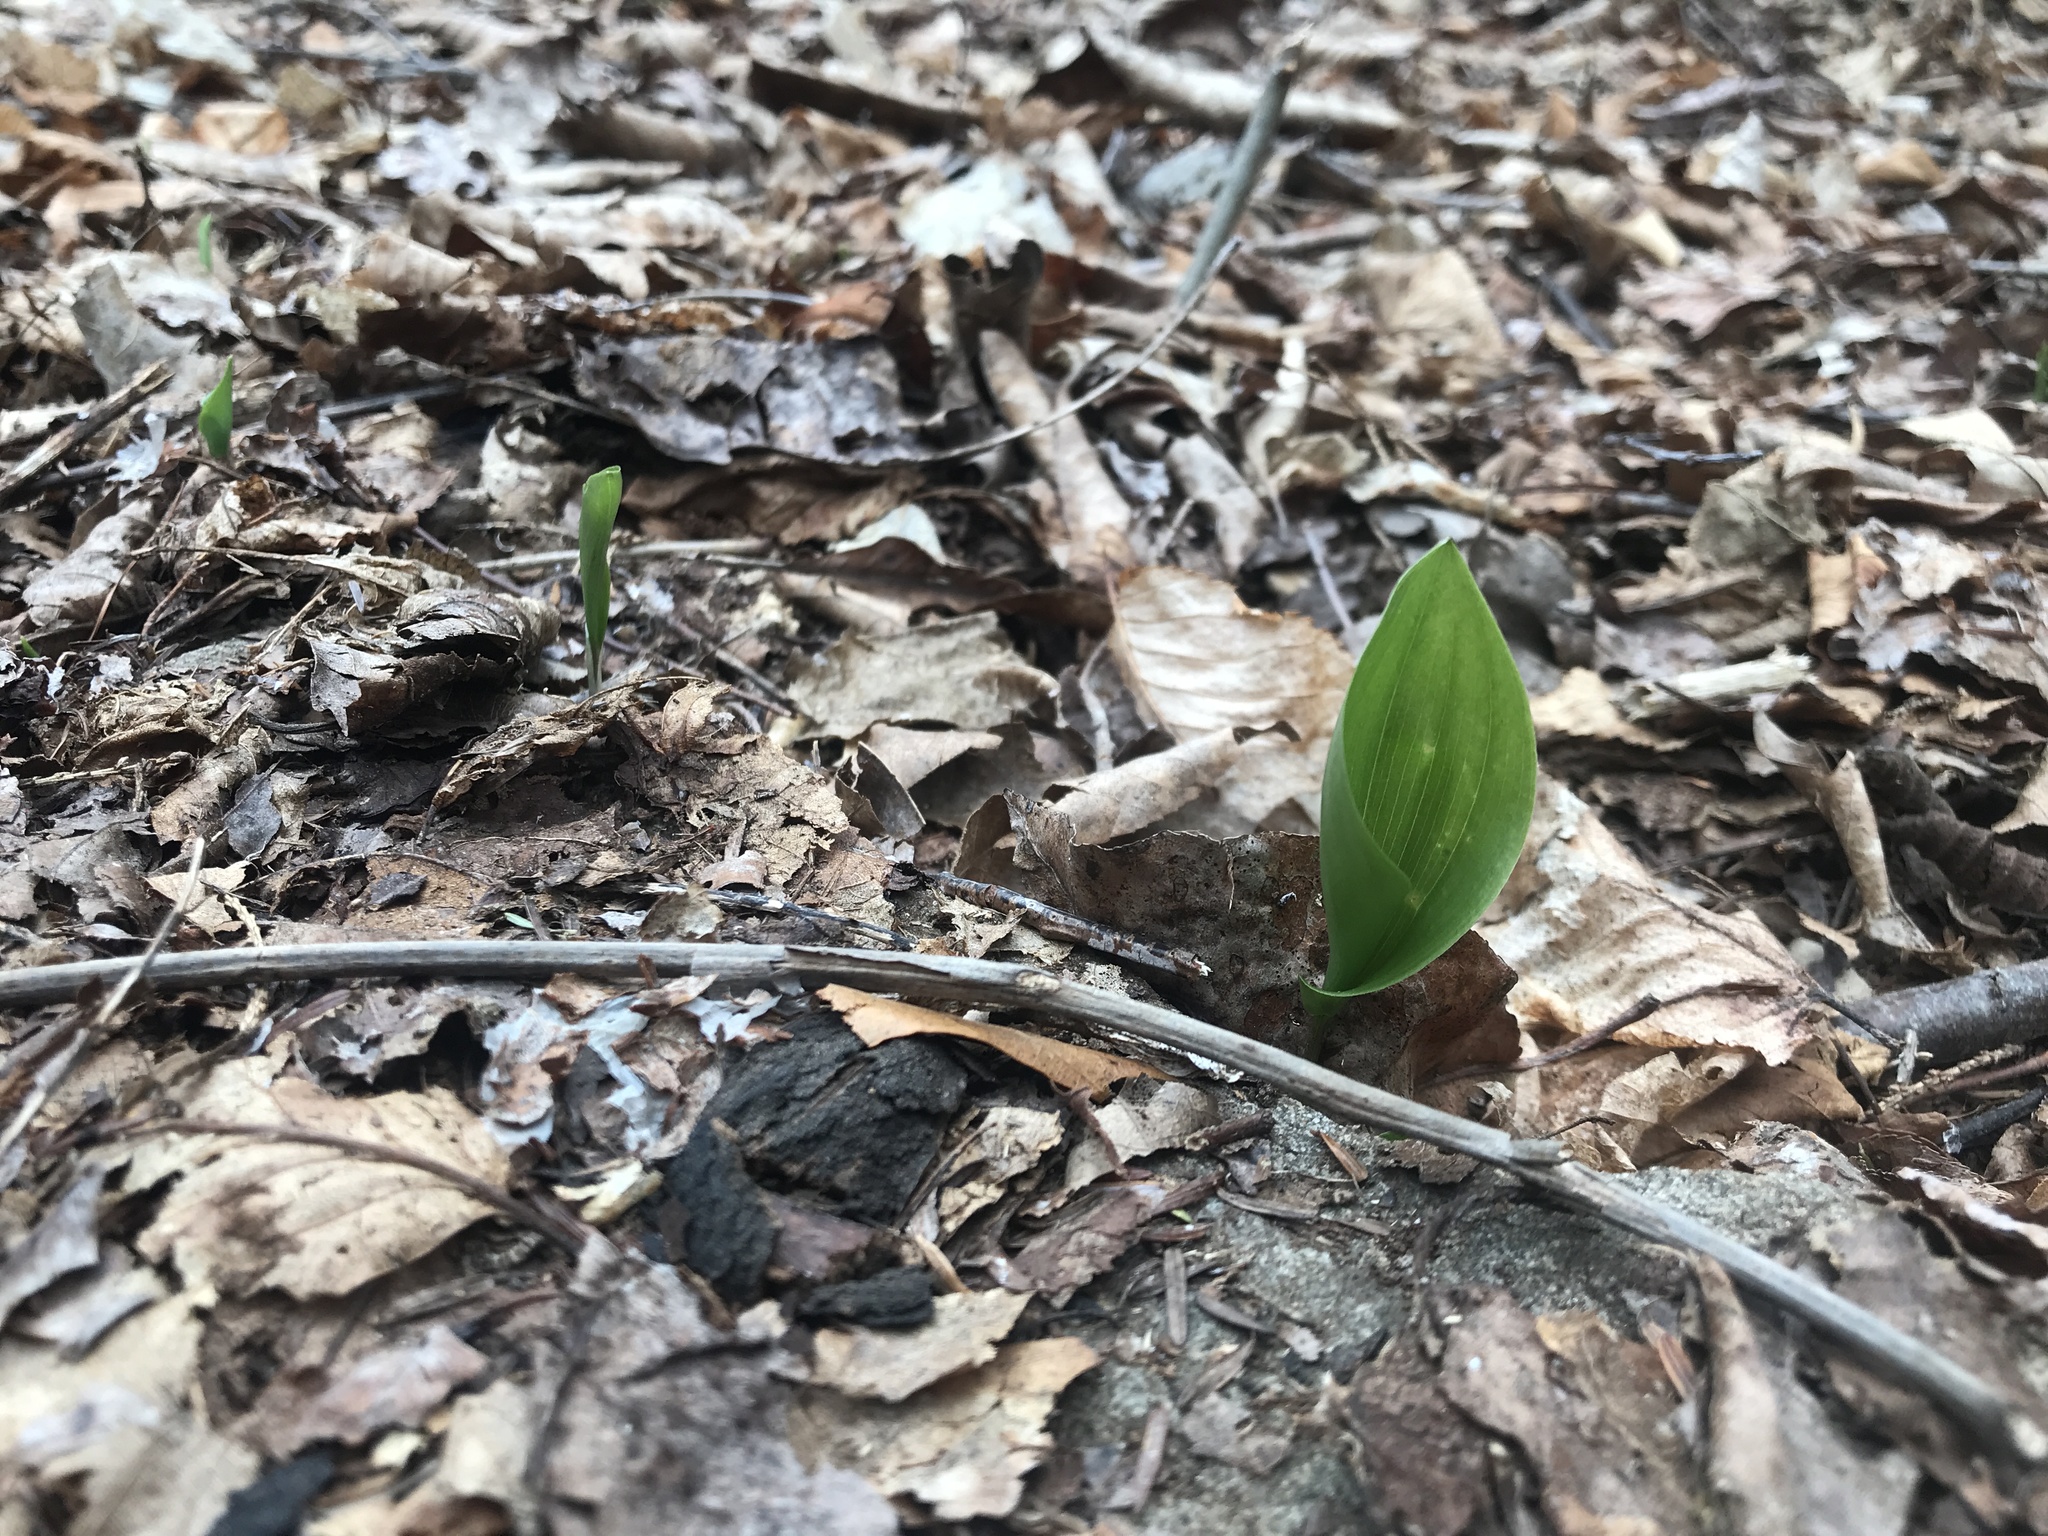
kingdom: Plantae
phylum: Tracheophyta
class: Liliopsida
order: Asparagales
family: Asparagaceae
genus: Maianthemum
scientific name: Maianthemum canadense
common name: False lily-of-the-valley
